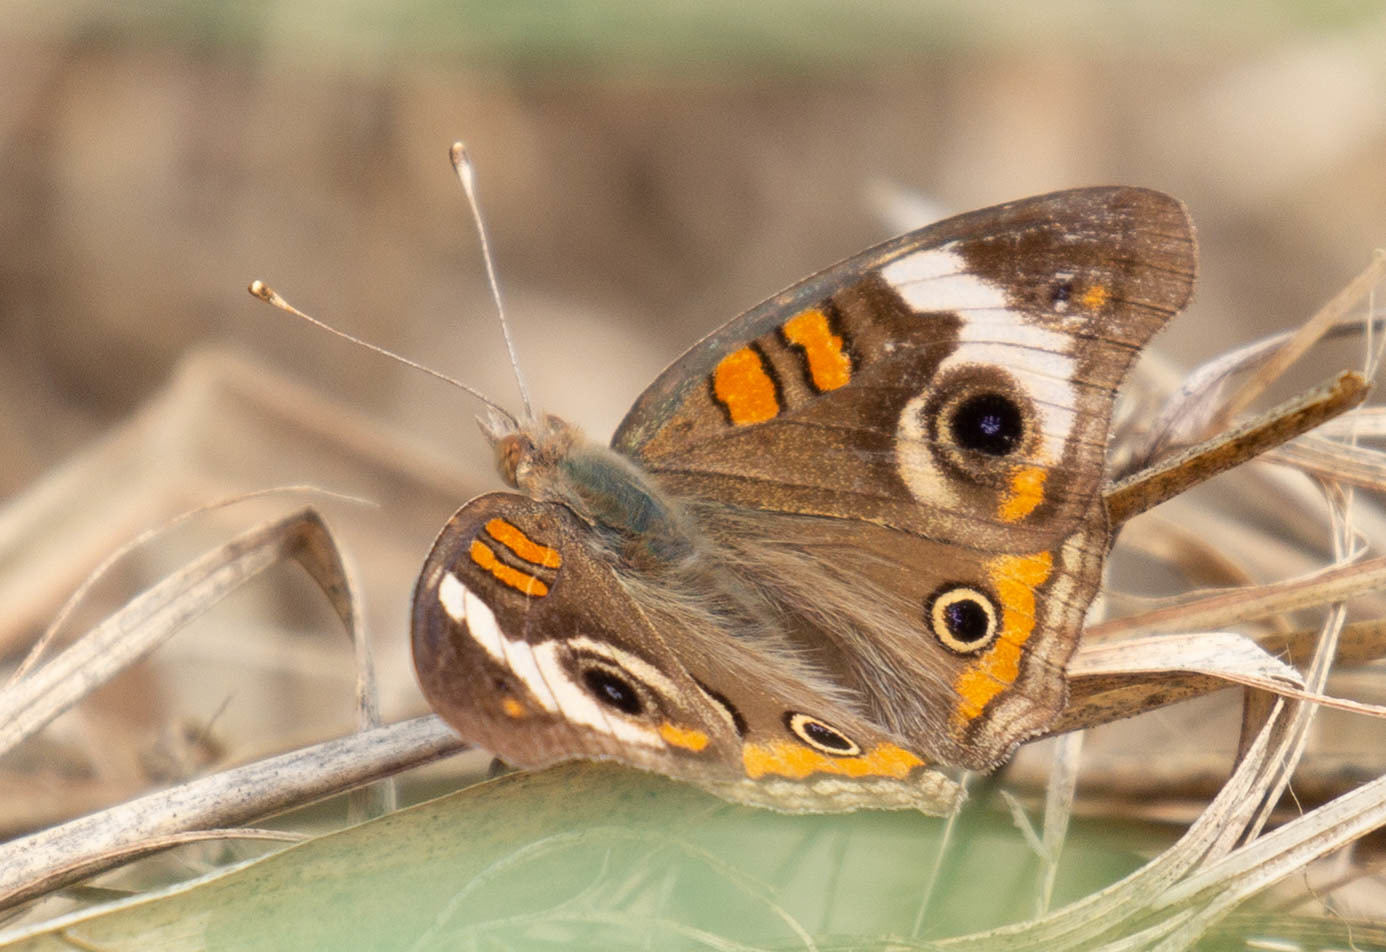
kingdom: Animalia
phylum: Arthropoda
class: Insecta
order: Lepidoptera
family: Nymphalidae
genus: Junonia
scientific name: Junonia coenia
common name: Common buckeye
